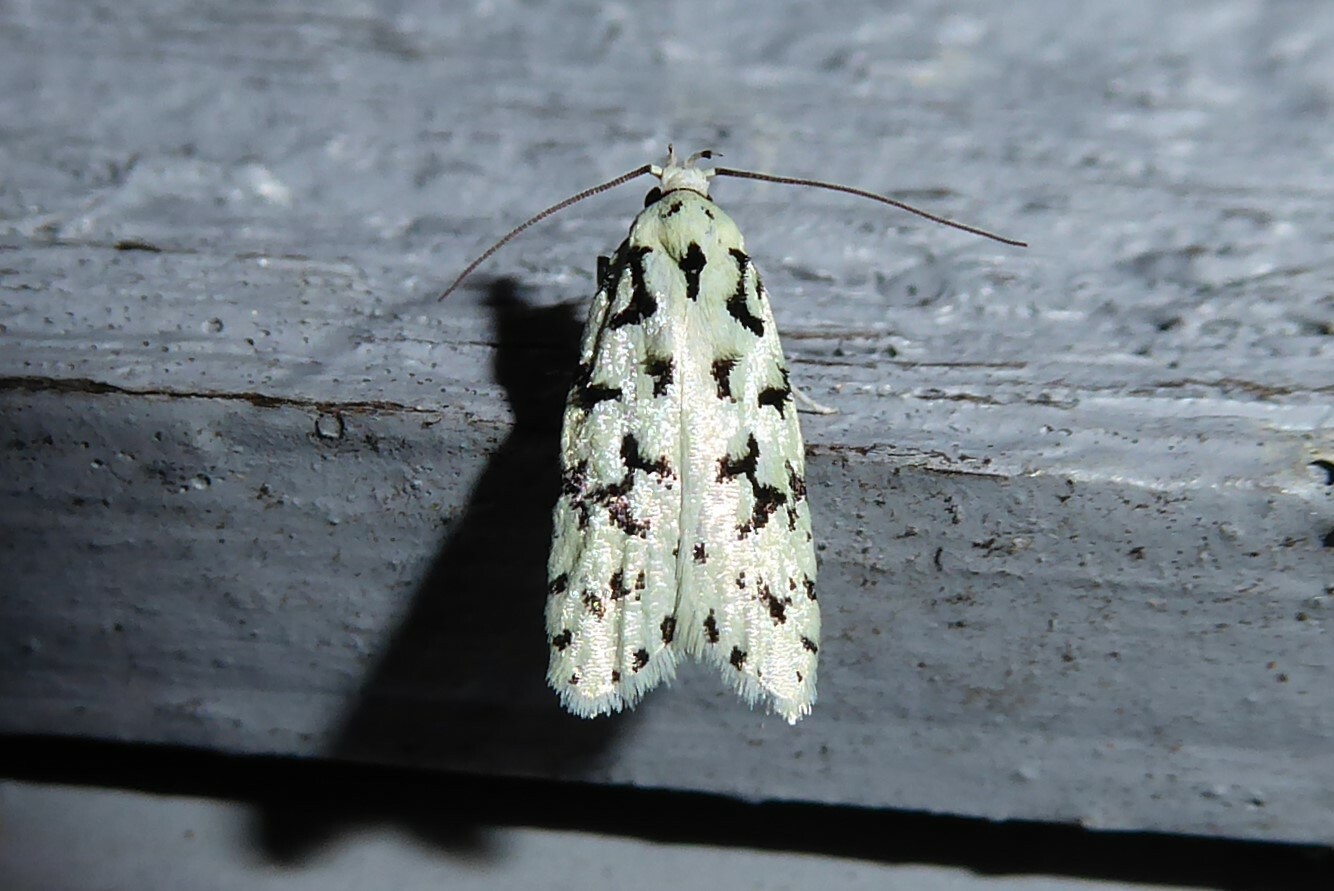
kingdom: Animalia
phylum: Arthropoda
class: Insecta
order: Lepidoptera
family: Oecophoridae
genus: Izatha
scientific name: Izatha huttoni
